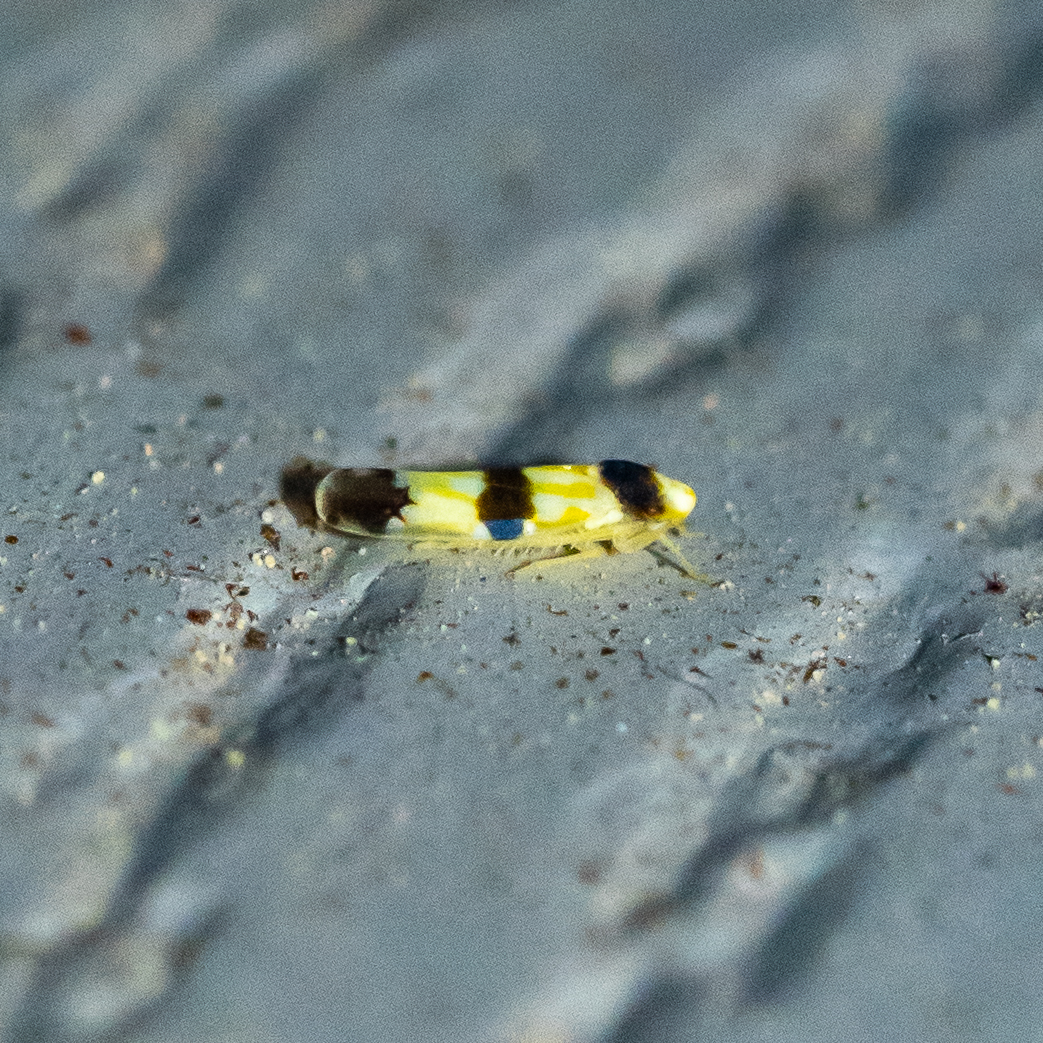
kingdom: Animalia
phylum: Arthropoda
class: Insecta
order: Hemiptera
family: Cicadellidae
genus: Erythroneura
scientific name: Erythroneura tricincta
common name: The threebanded grape leafhopper
